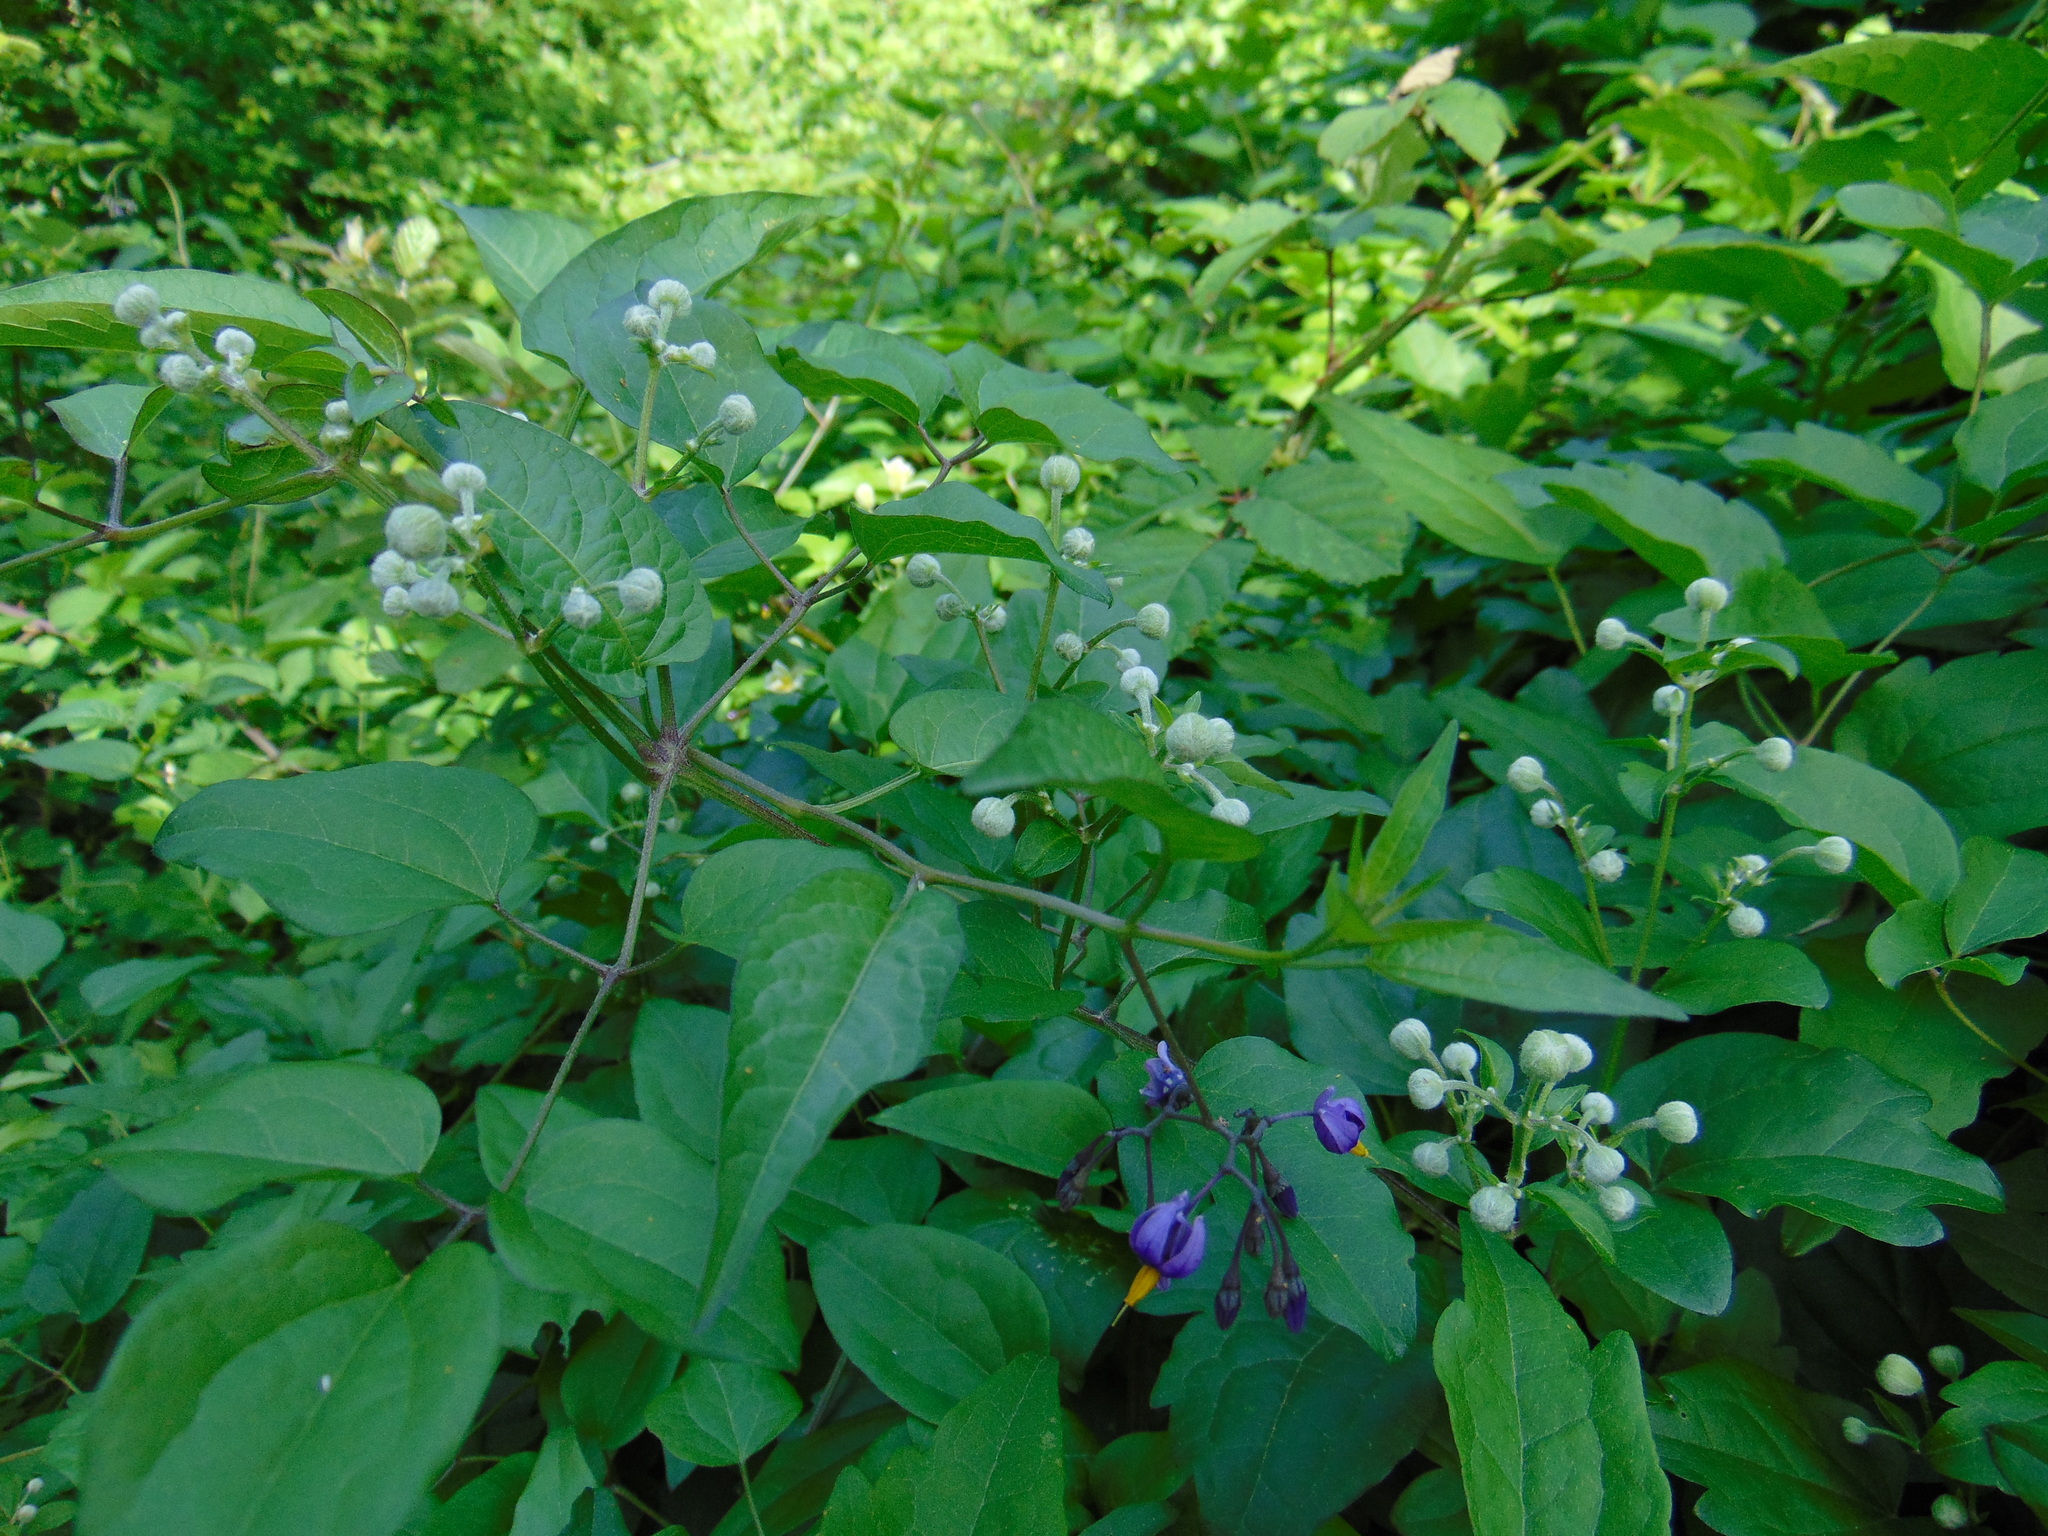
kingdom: Plantae
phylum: Tracheophyta
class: Magnoliopsida
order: Solanales
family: Solanaceae
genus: Solanum
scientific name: Solanum dulcamara
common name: Climbing nightshade
